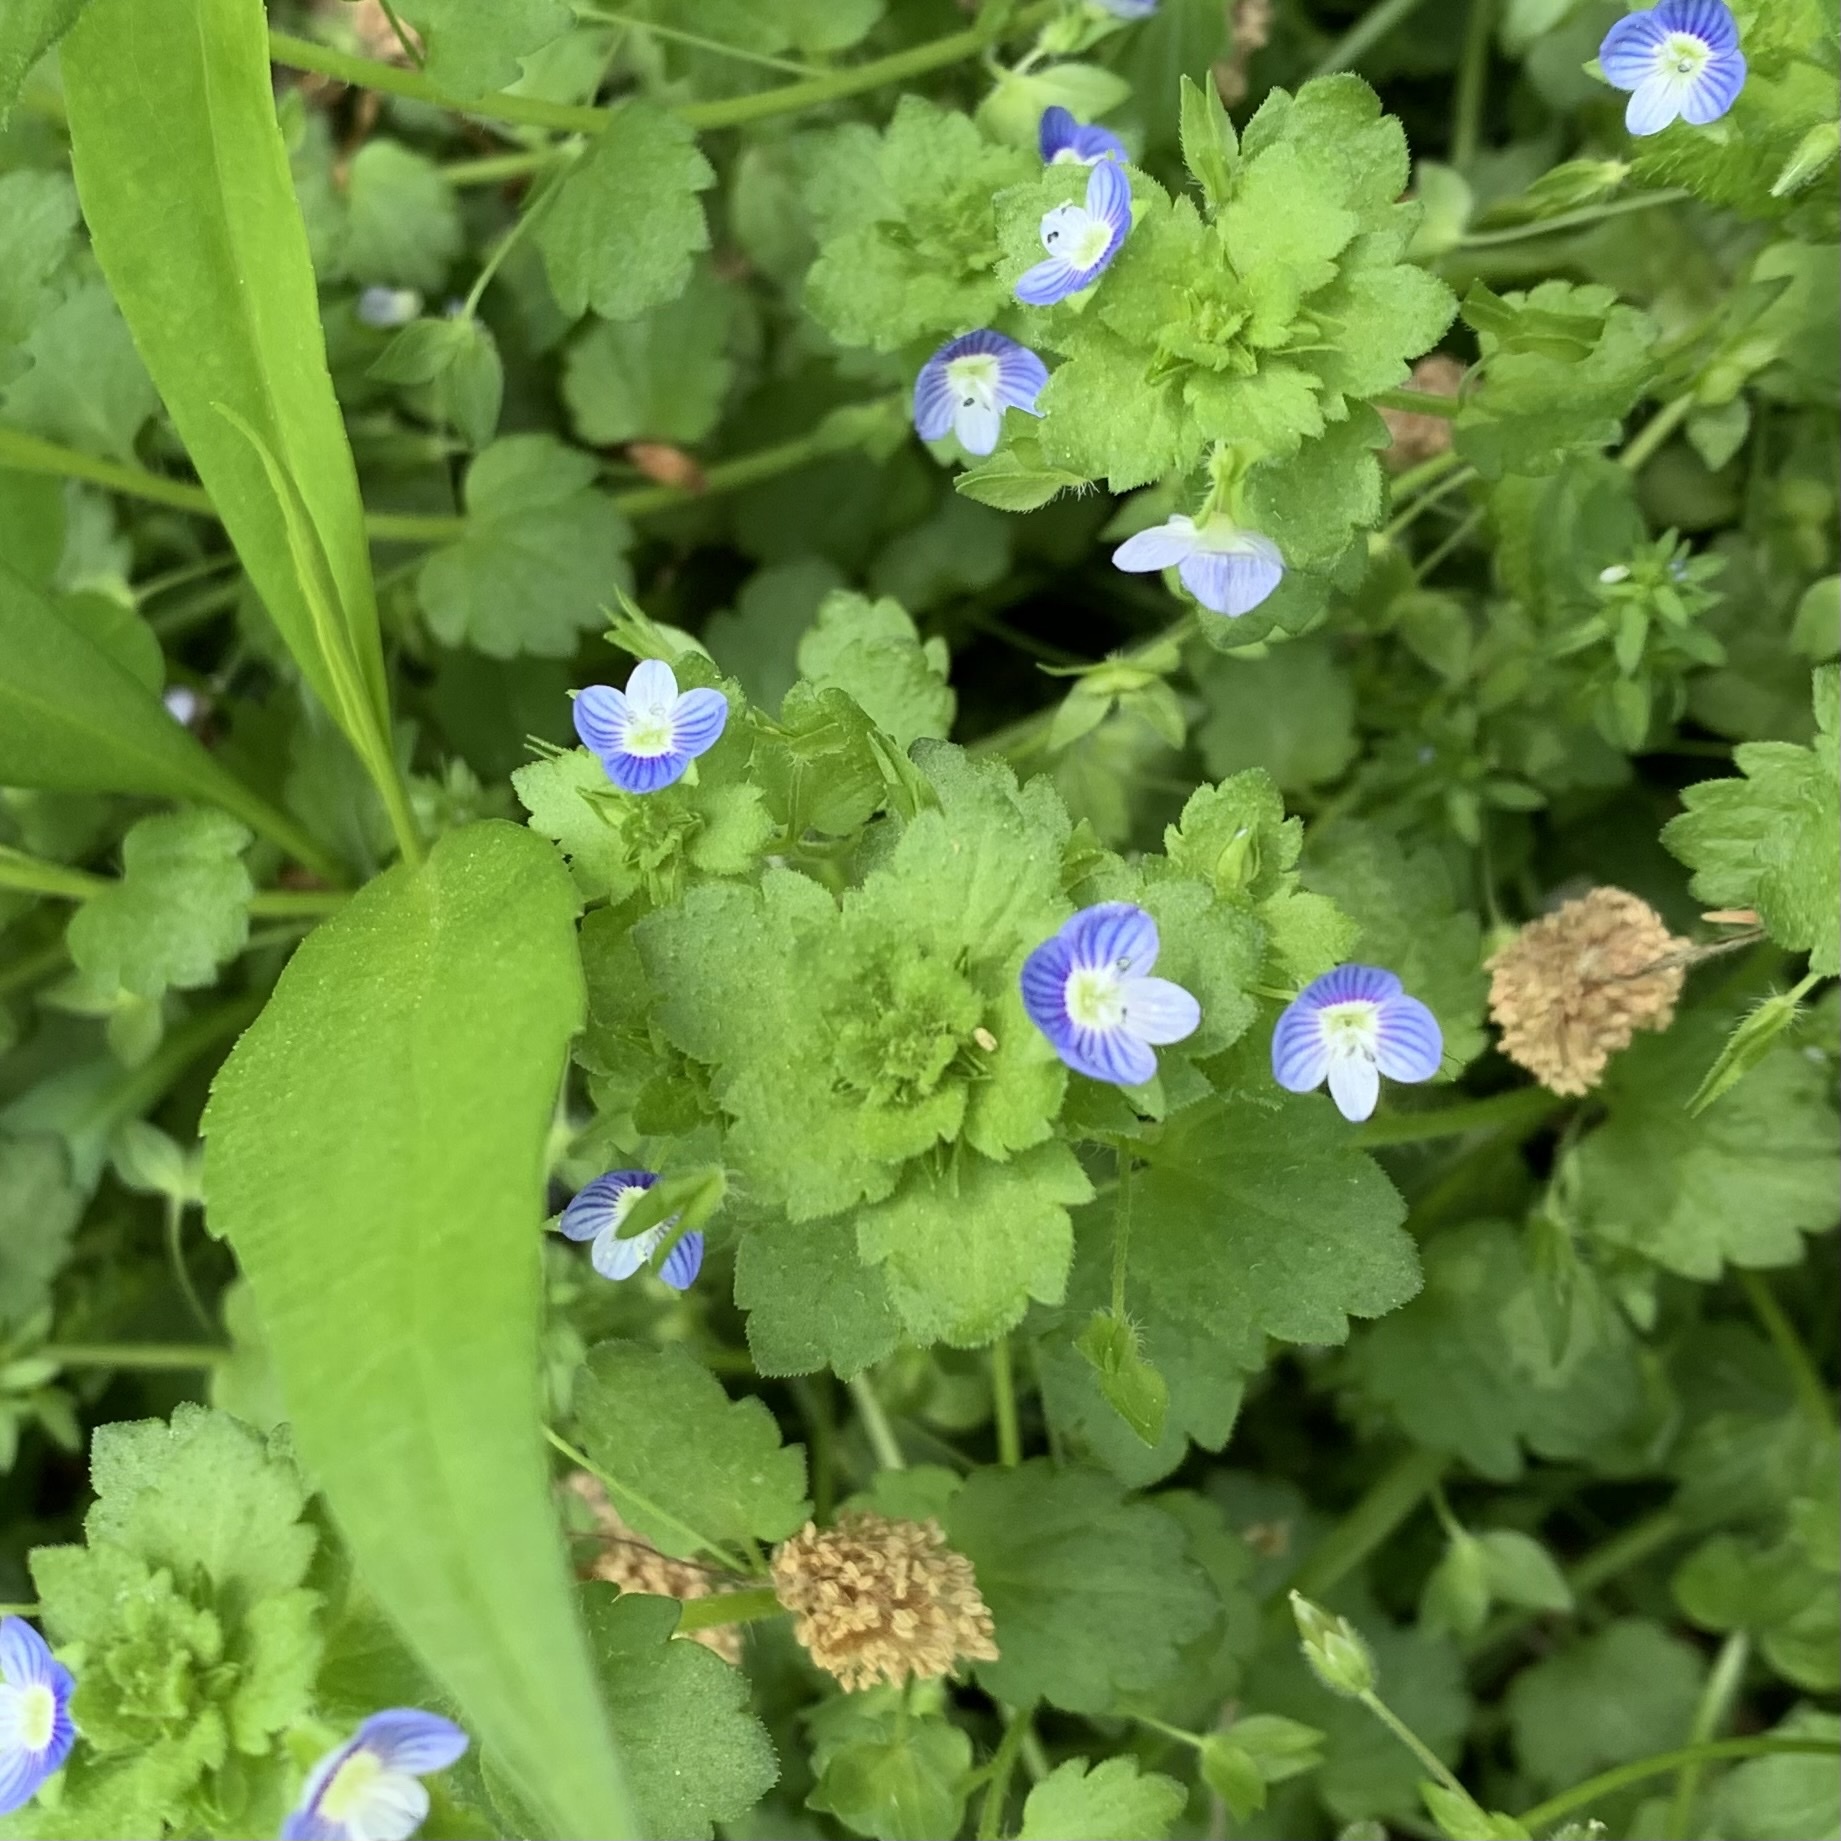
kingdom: Plantae
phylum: Tracheophyta
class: Magnoliopsida
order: Lamiales
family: Plantaginaceae
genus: Veronica
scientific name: Veronica persica
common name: Common field-speedwell
